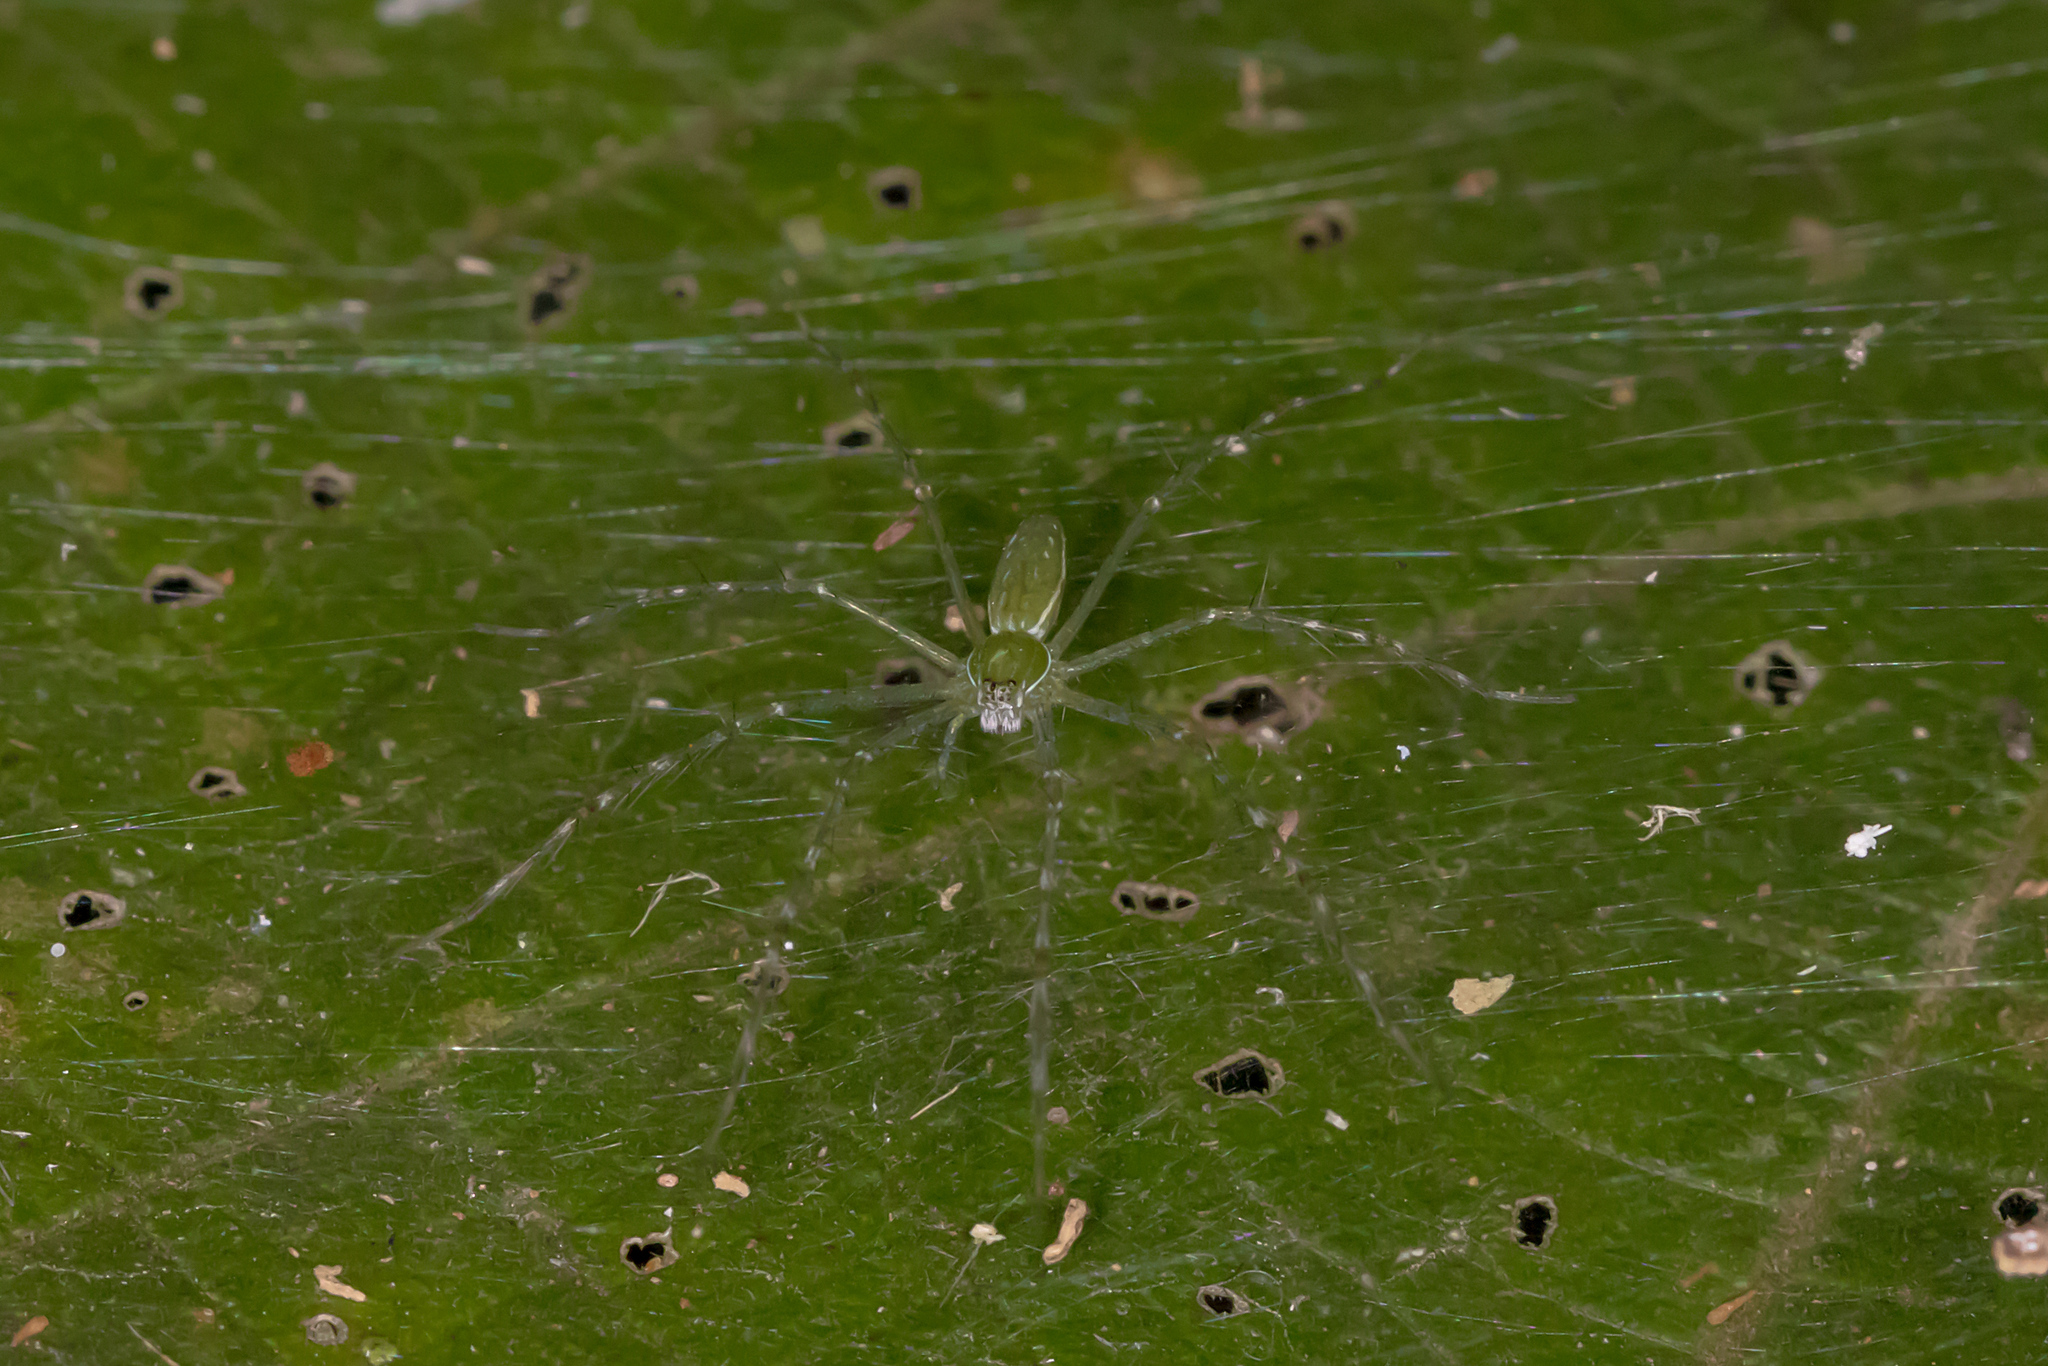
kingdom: Animalia
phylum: Arthropoda
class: Arachnida
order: Araneae
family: Pisauridae
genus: Hygropoda
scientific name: Hygropoda lineata
